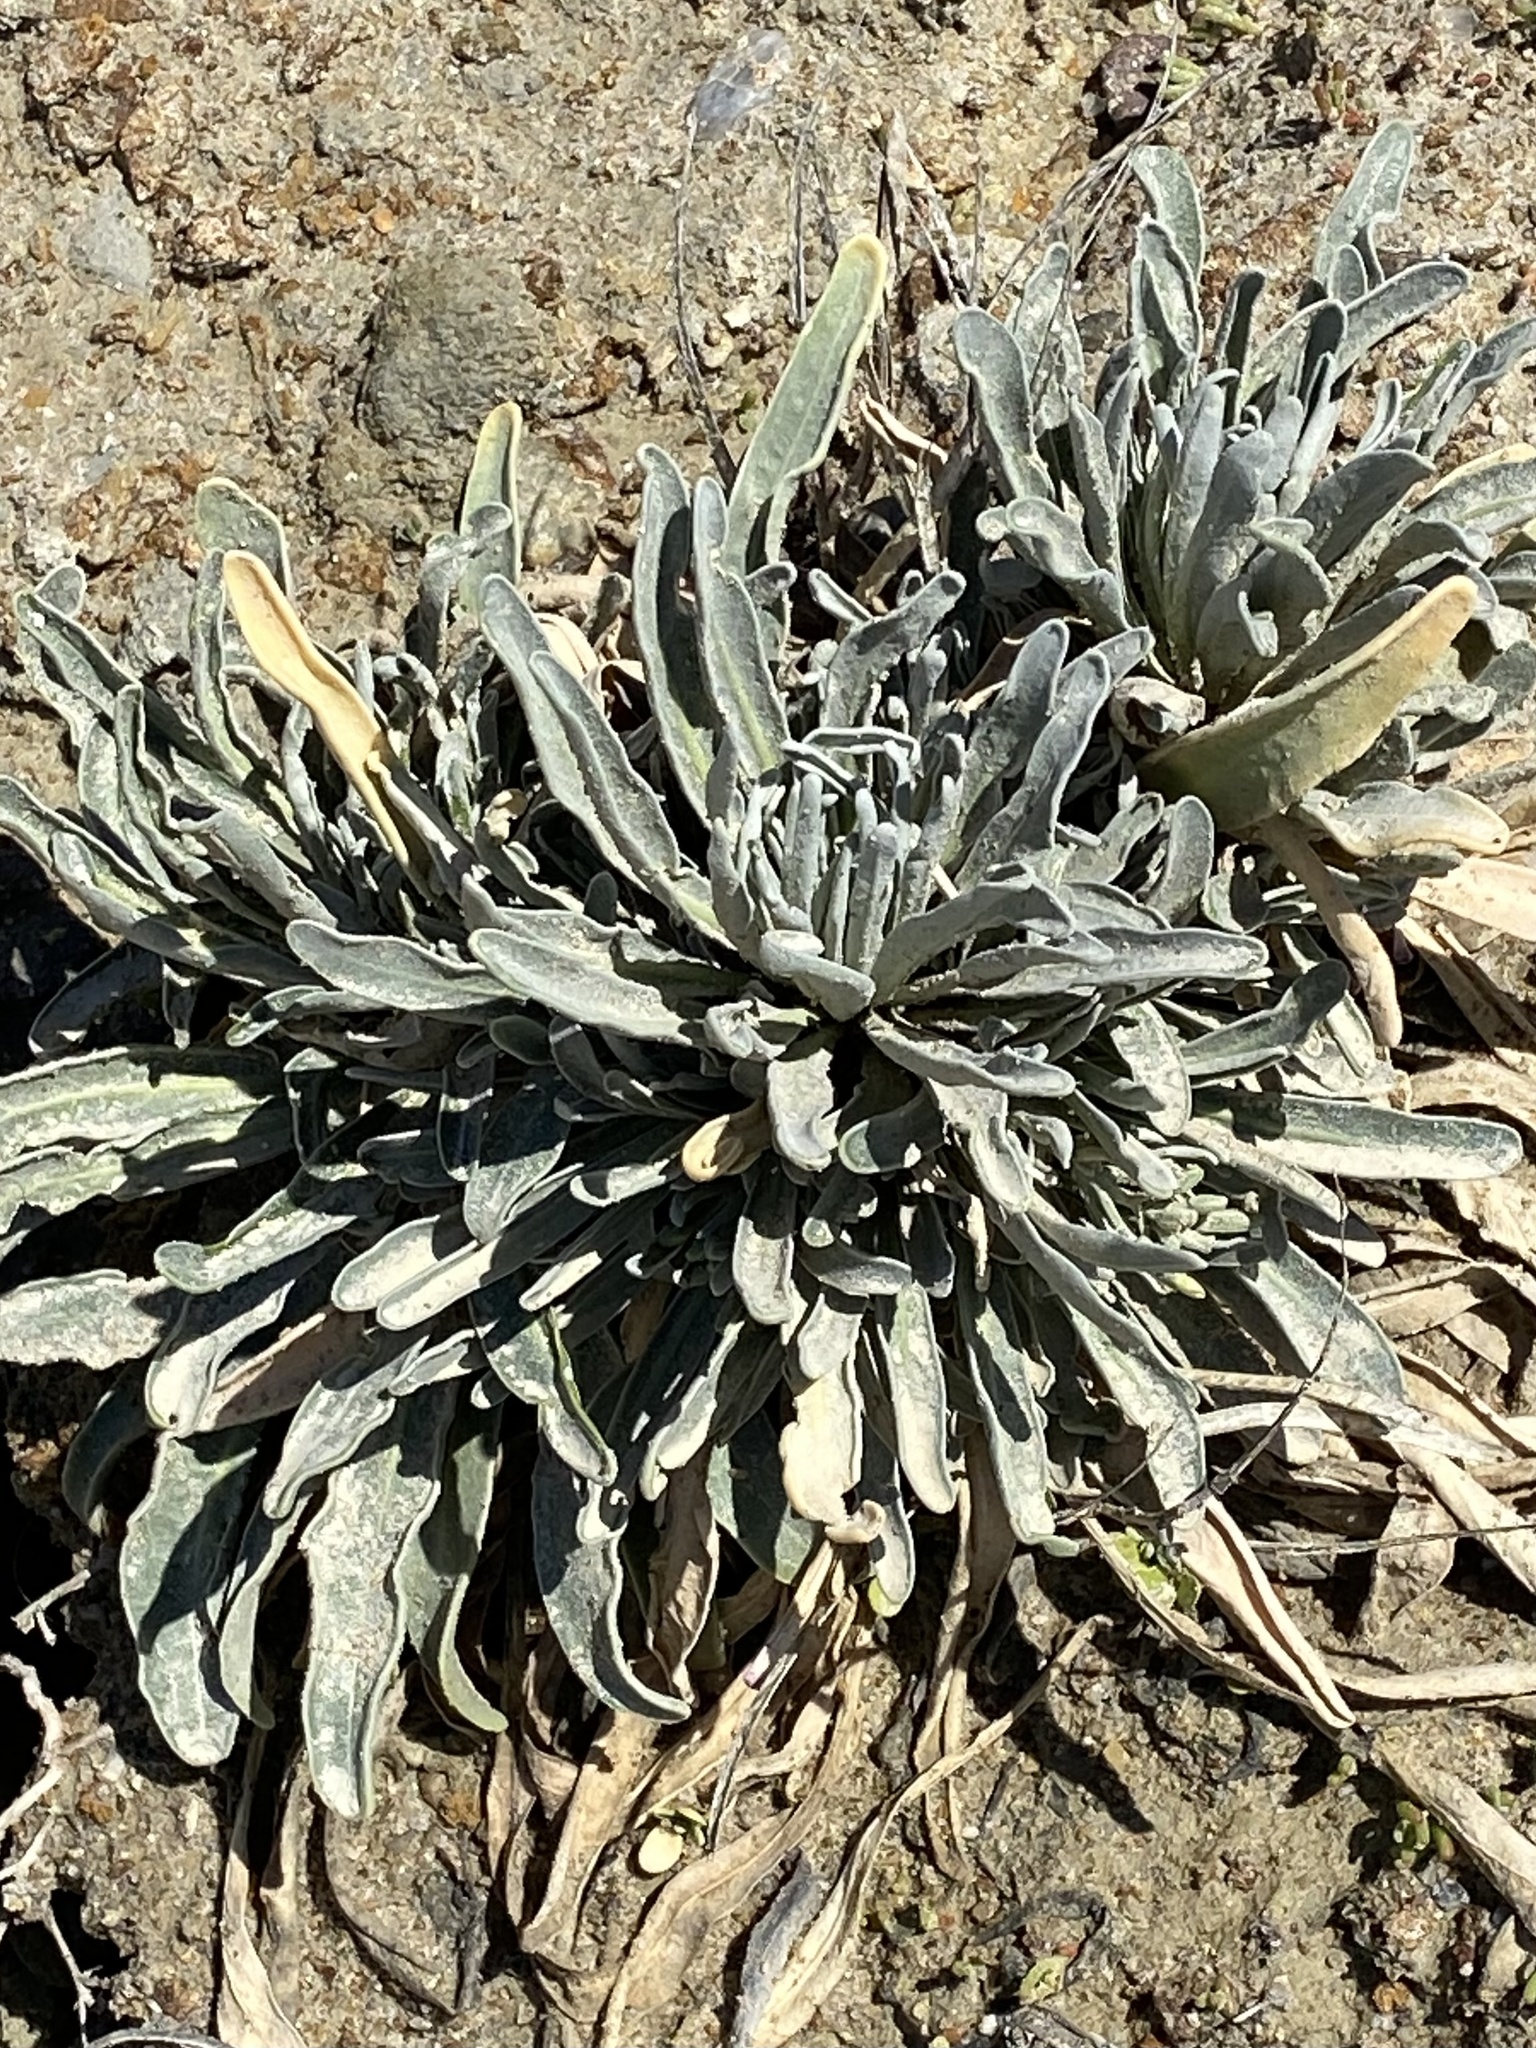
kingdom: Plantae
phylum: Tracheophyta
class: Magnoliopsida
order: Brassicales
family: Brassicaceae
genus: Matthiola
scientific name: Matthiola incana
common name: Hoary stock
